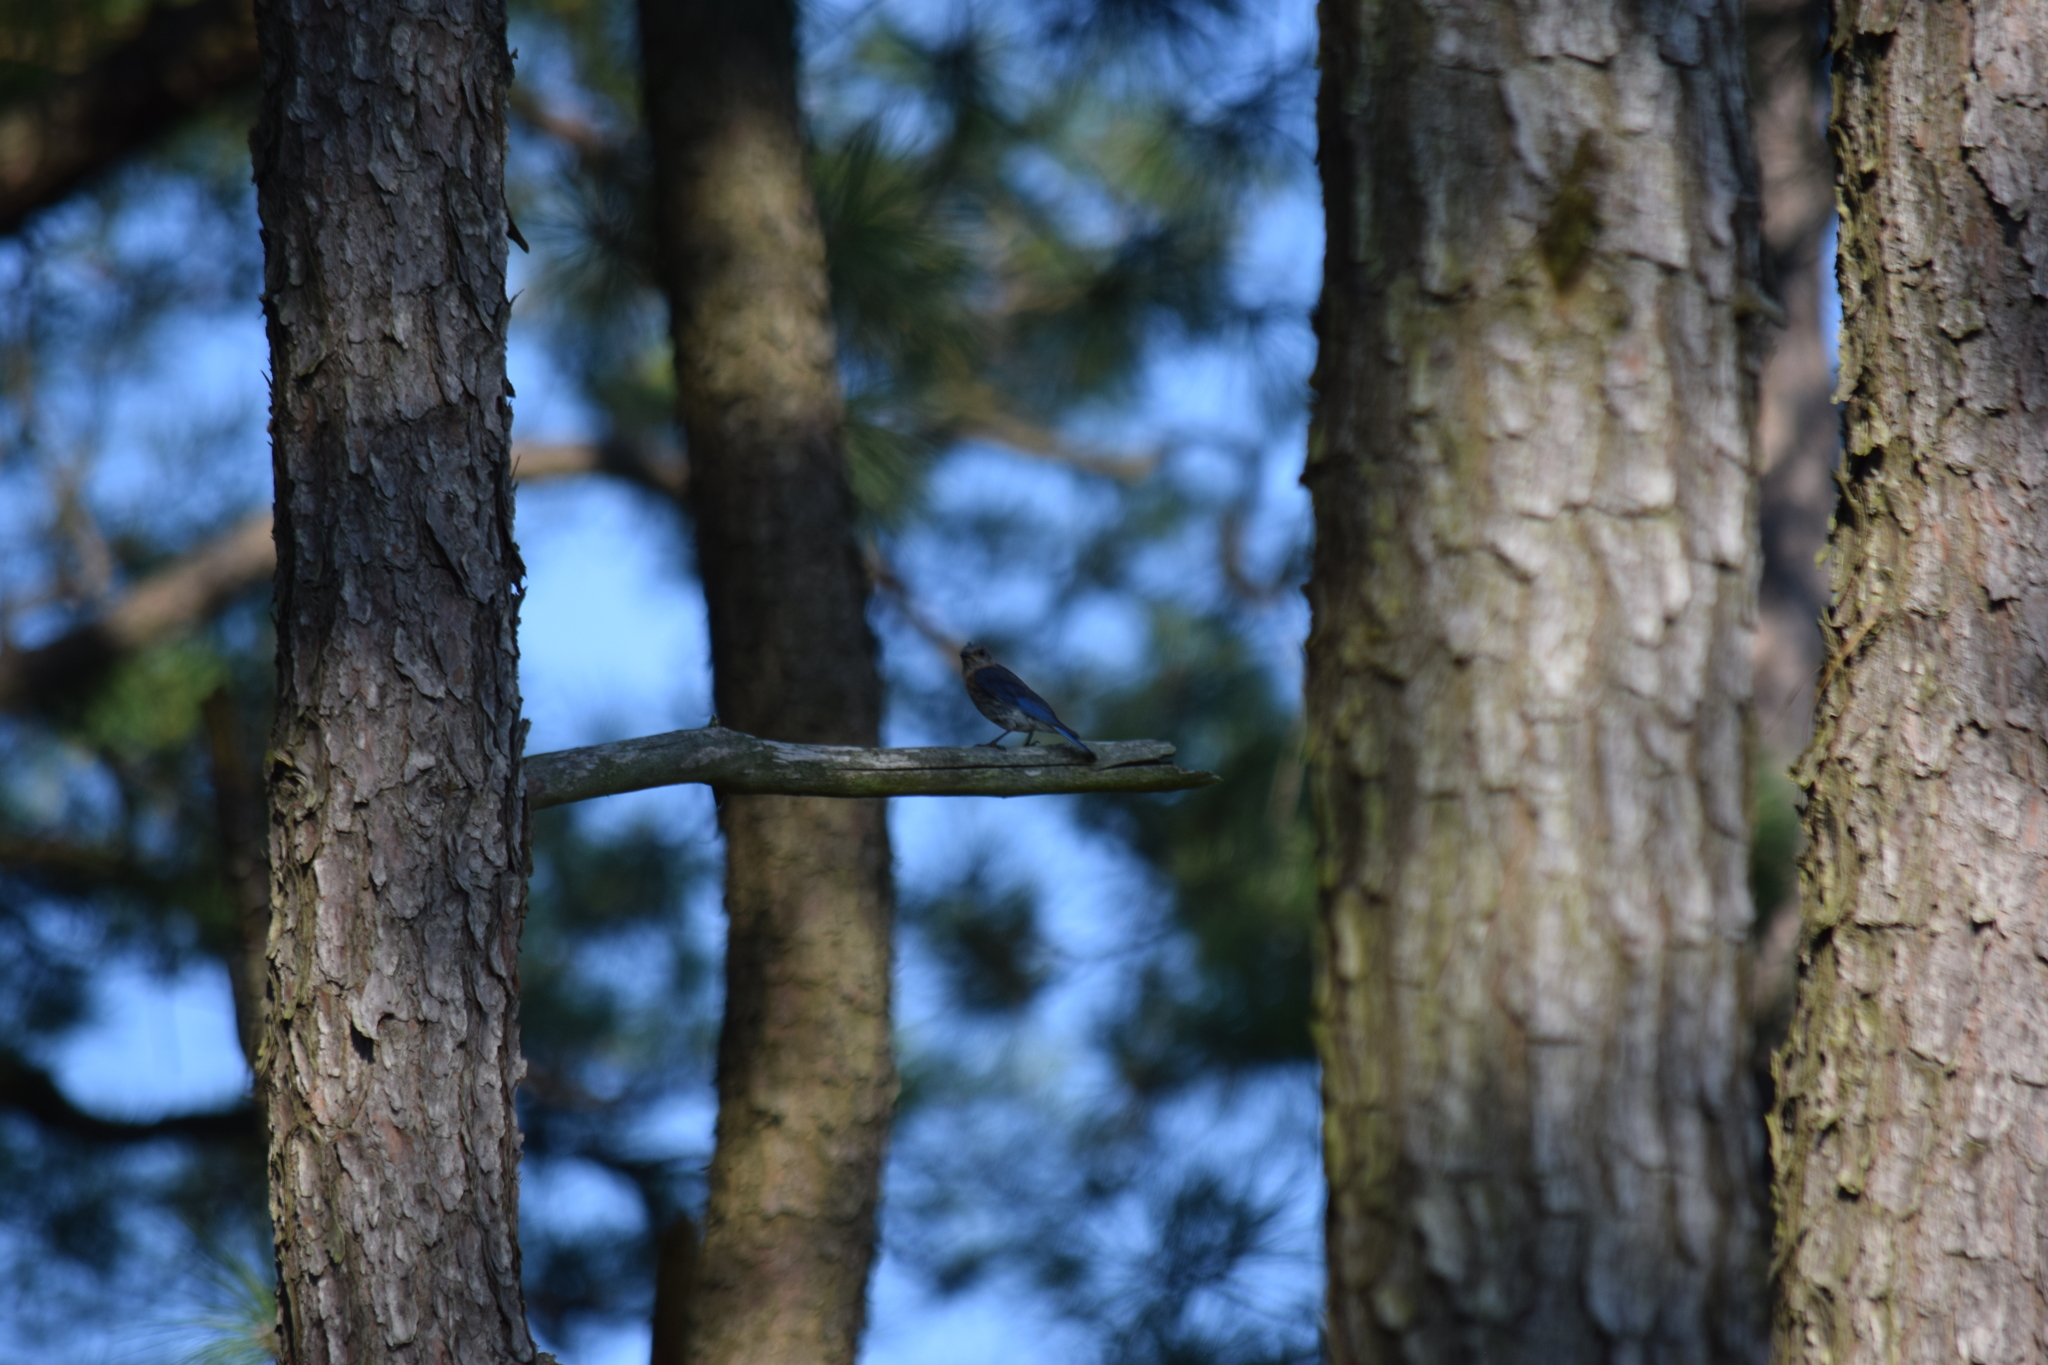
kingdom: Animalia
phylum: Chordata
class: Aves
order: Passeriformes
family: Turdidae
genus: Sialia
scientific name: Sialia sialis
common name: Eastern bluebird
